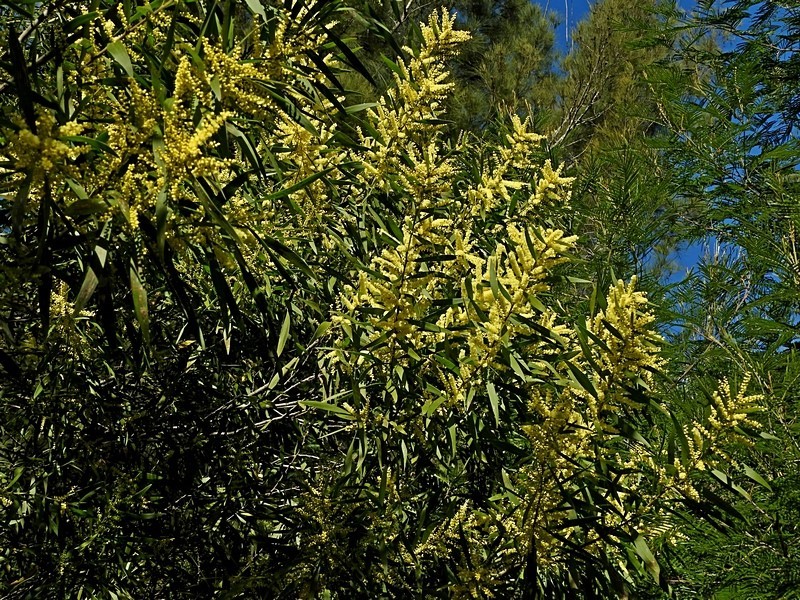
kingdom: Plantae
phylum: Tracheophyta
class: Magnoliopsida
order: Fabales
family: Fabaceae
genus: Acacia
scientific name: Acacia floribunda
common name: Gossamer wattle
